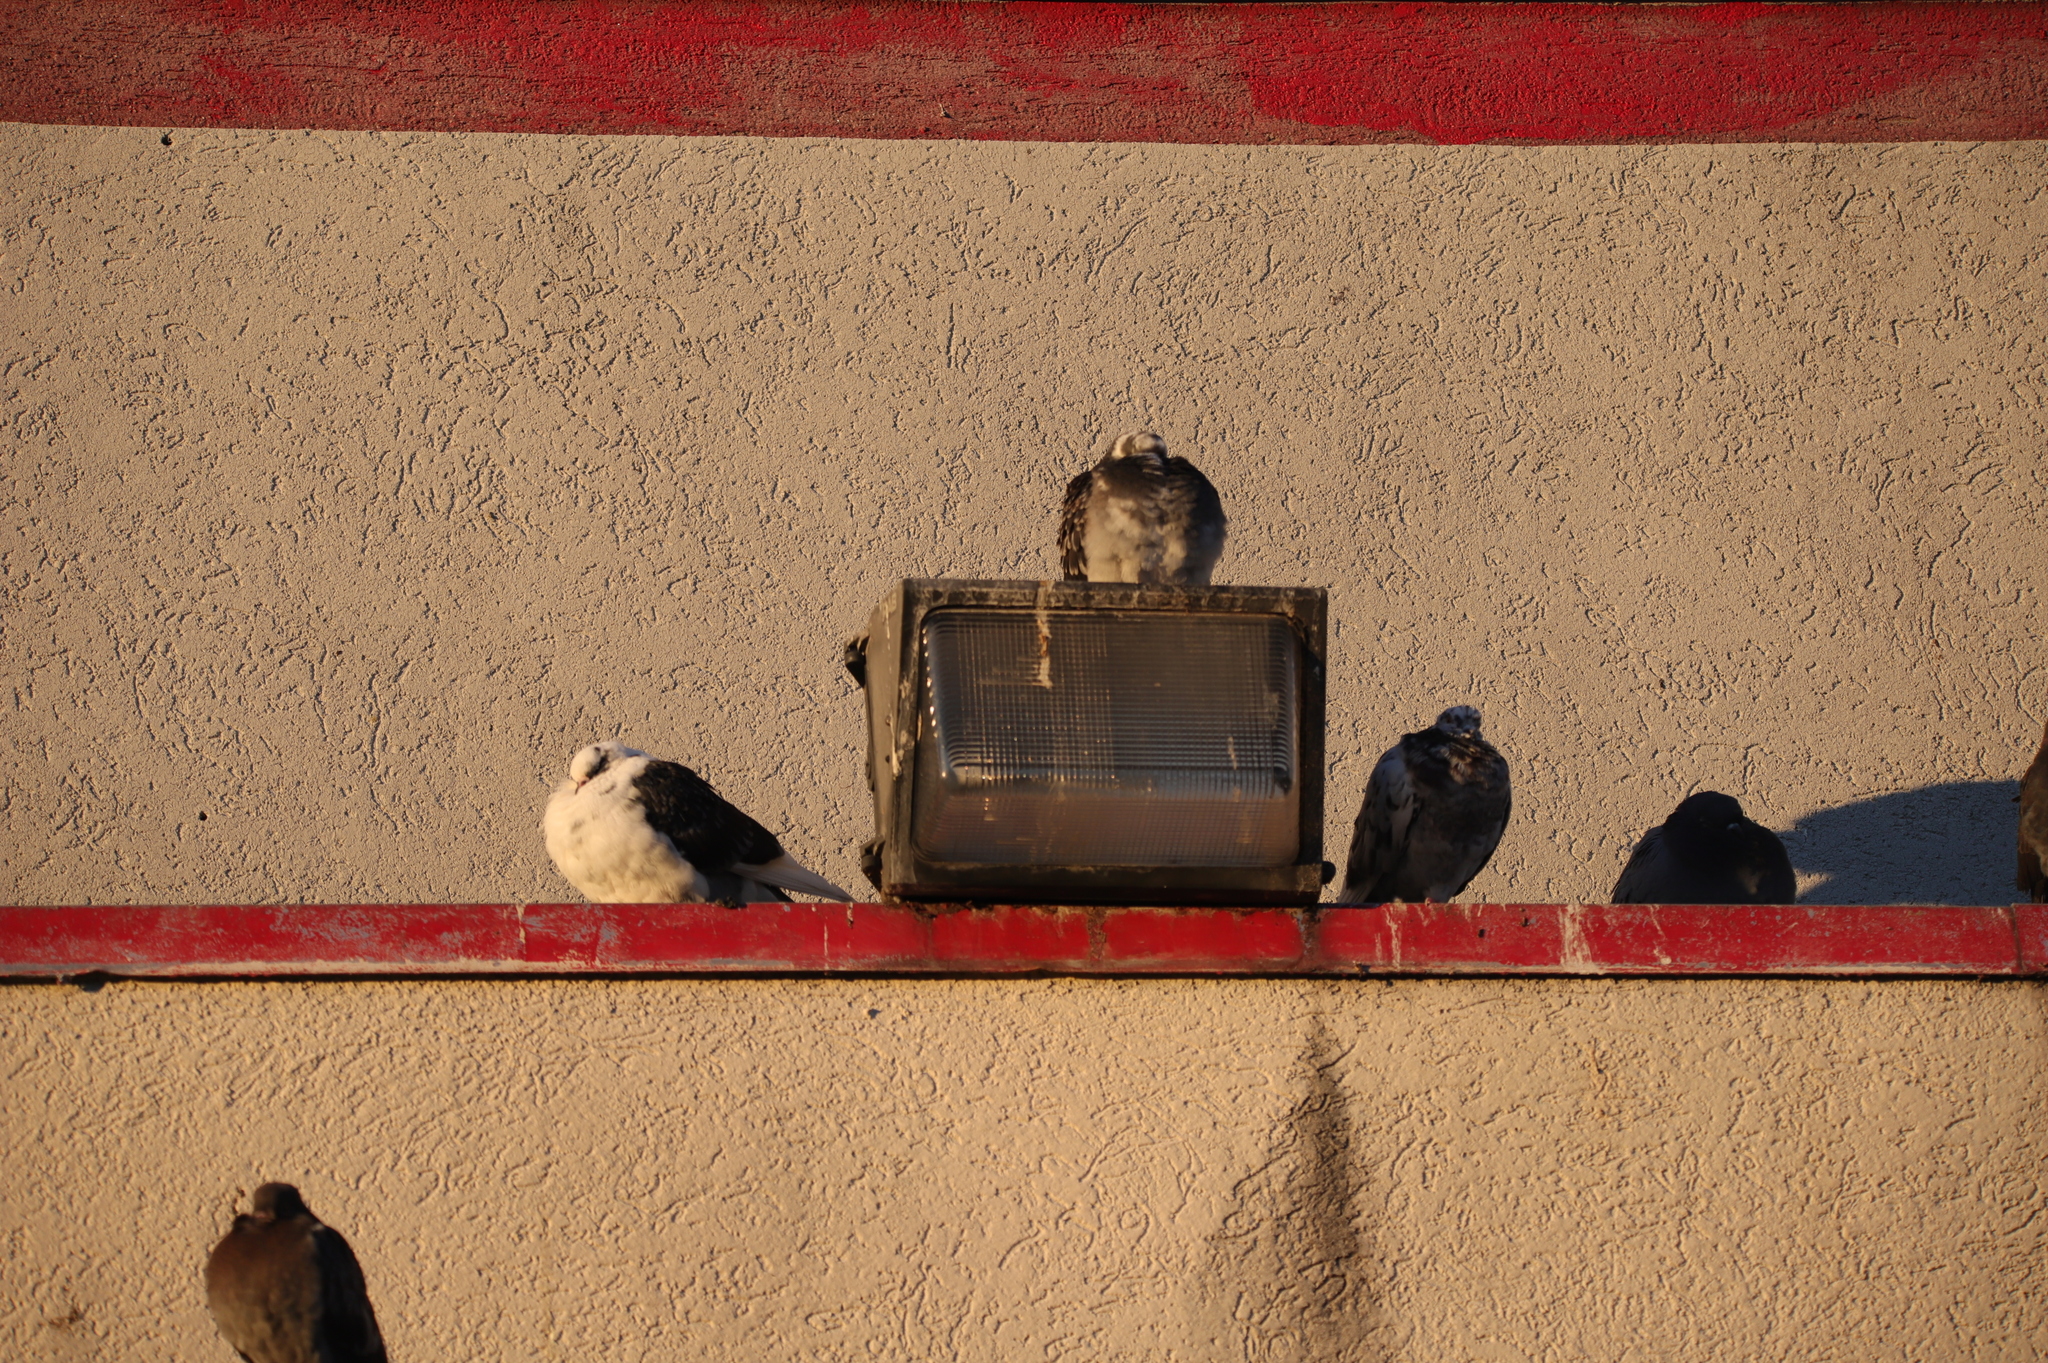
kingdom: Animalia
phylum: Chordata
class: Aves
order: Columbiformes
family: Columbidae
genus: Columba
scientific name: Columba livia
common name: Rock pigeon
